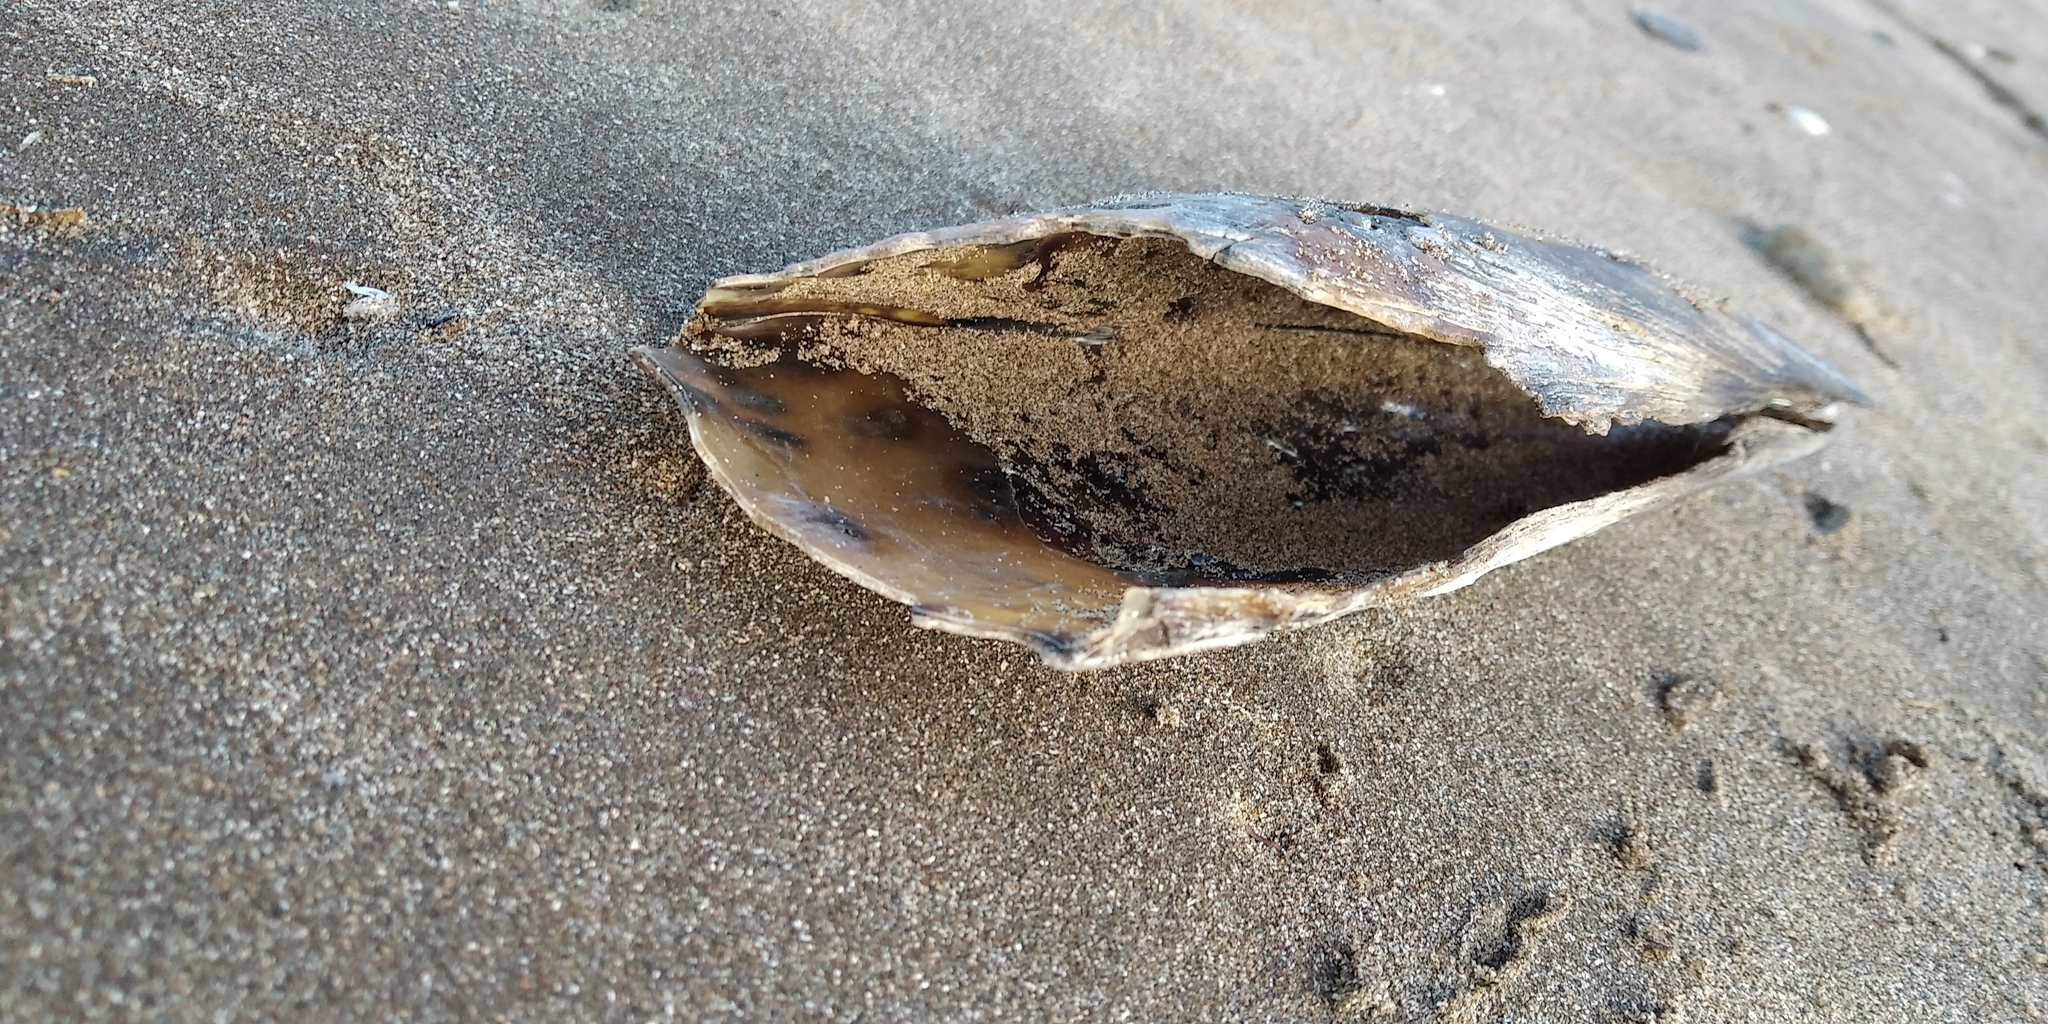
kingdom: Animalia
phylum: Mollusca
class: Bivalvia
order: Ostreida
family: Pinnidae
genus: Atrina
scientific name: Atrina seminuda
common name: Half-naked penshell
